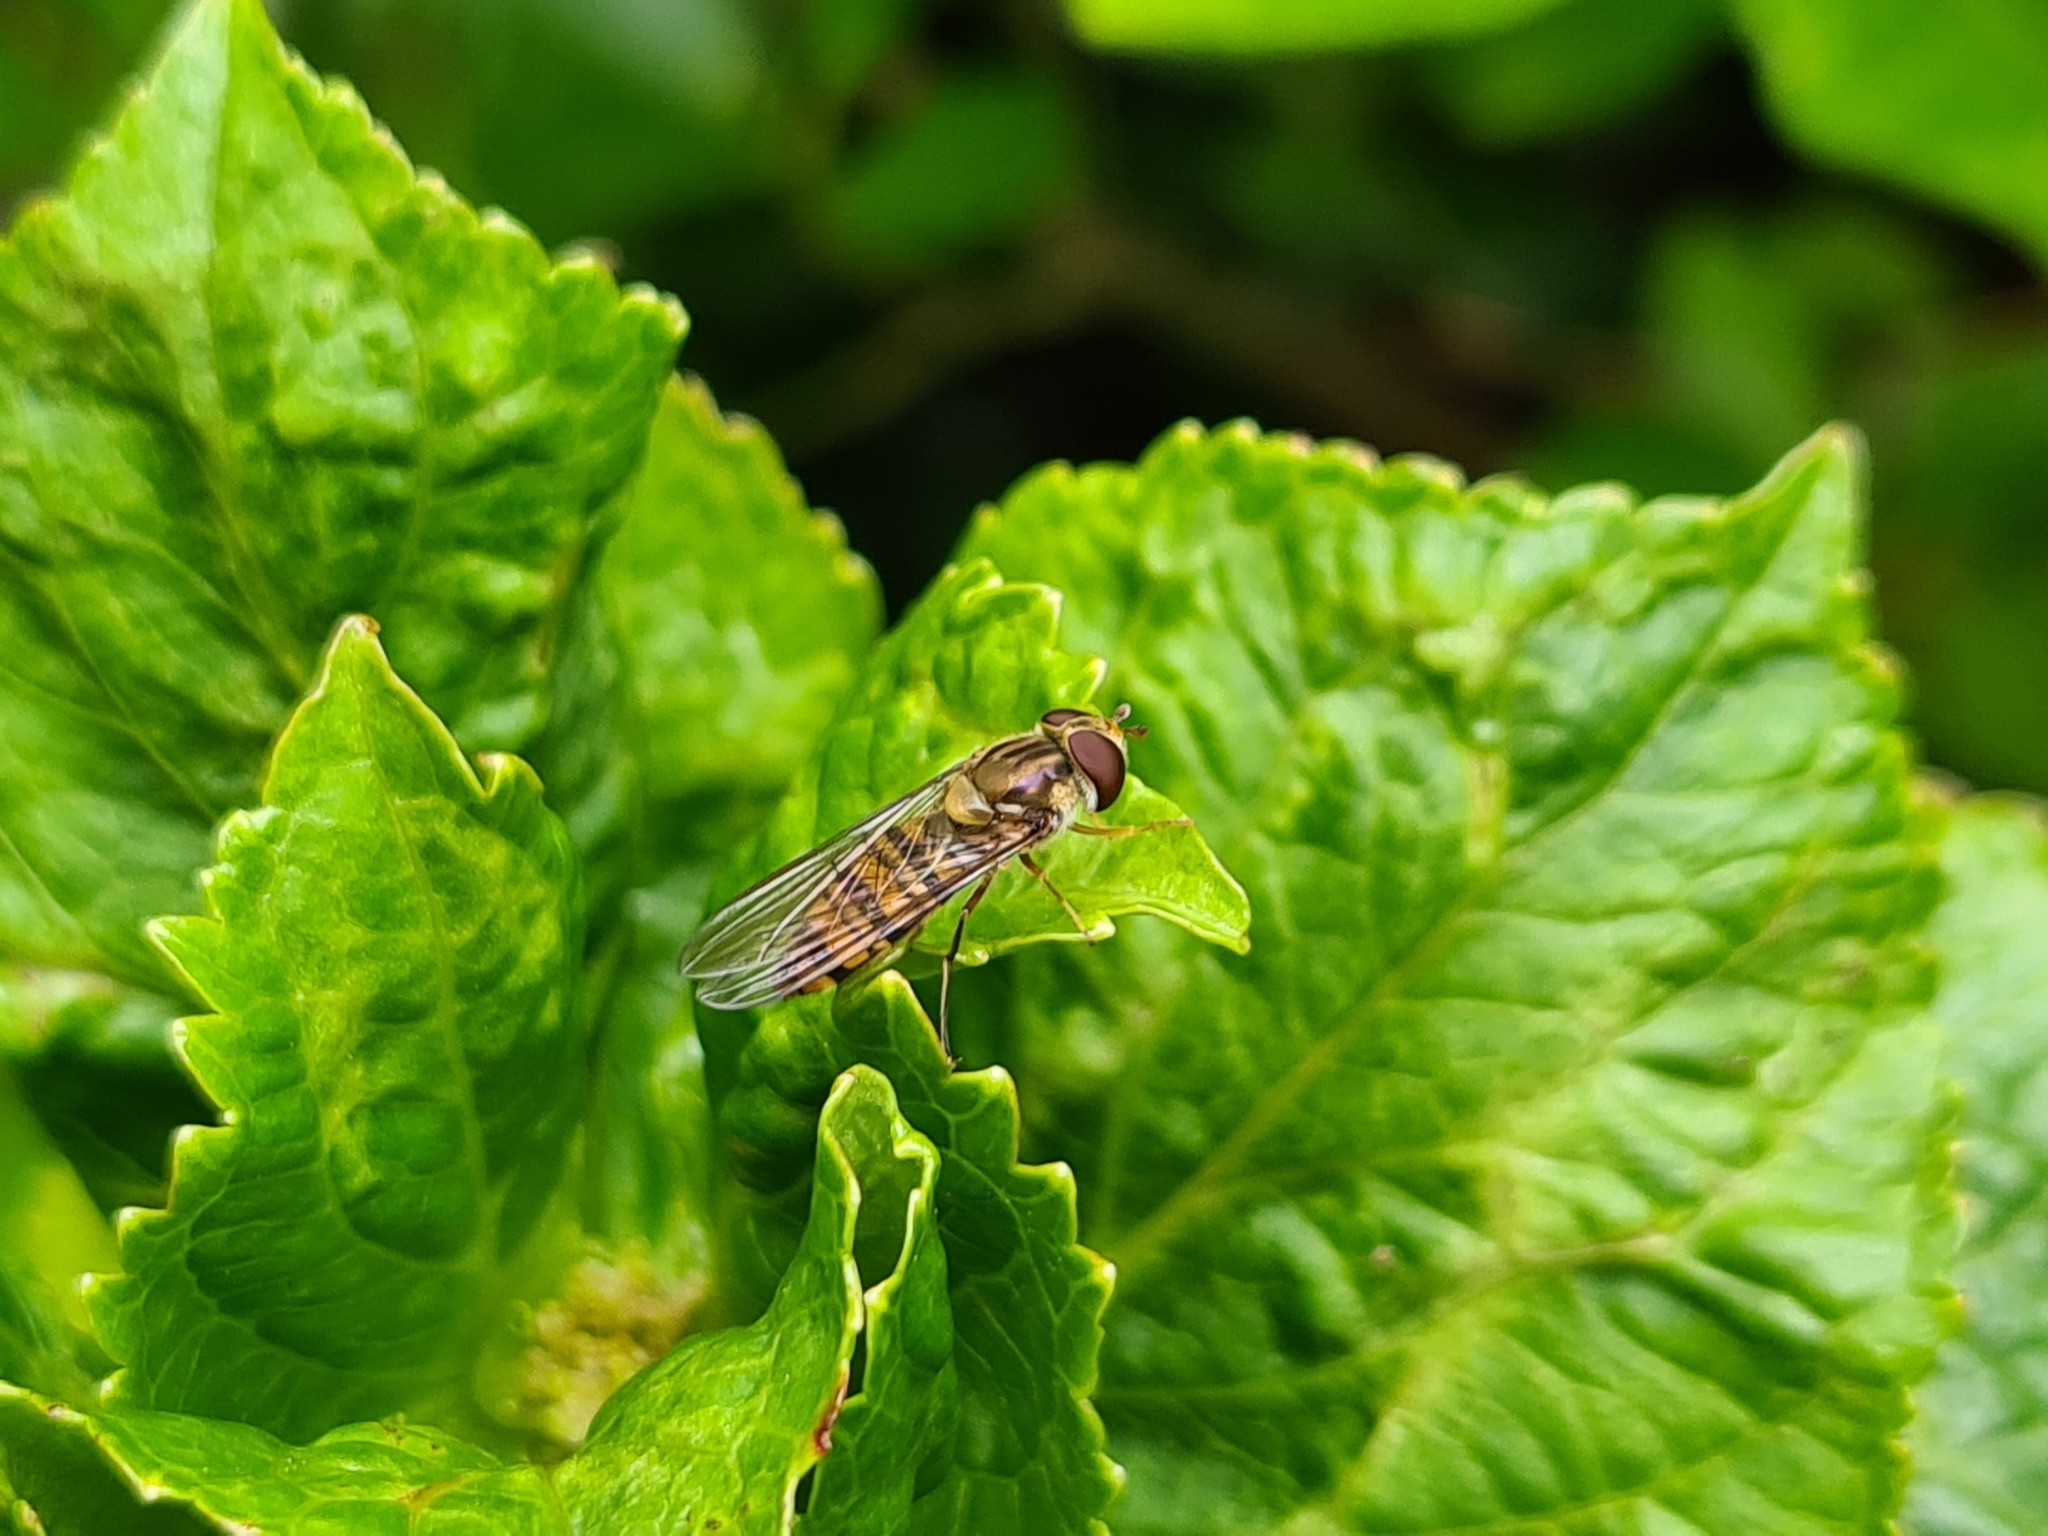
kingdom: Animalia
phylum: Arthropoda
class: Insecta
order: Diptera
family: Syrphidae
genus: Episyrphus
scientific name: Episyrphus balteatus
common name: Marmalade hoverfly
